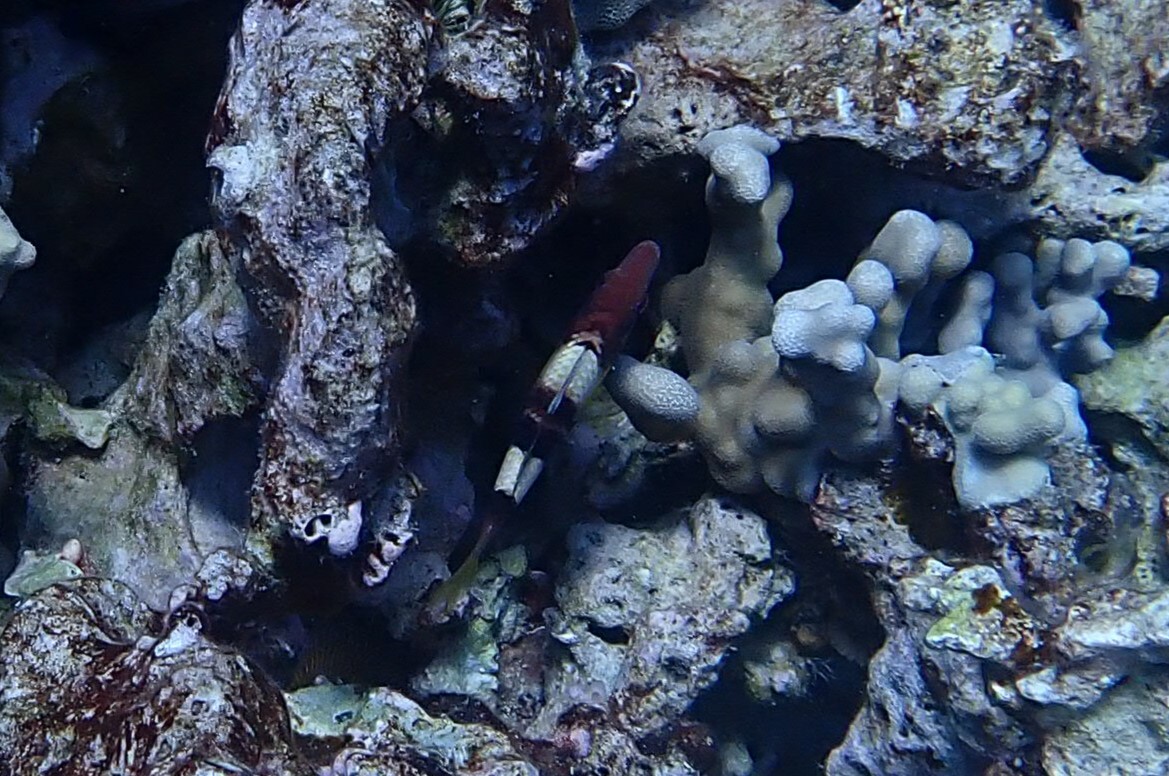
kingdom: Animalia
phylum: Chordata
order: Perciformes
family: Mullidae
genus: Parupeneus
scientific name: Parupeneus multifasciatus
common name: Manybar goatfish
